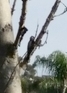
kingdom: Animalia
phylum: Chordata
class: Aves
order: Piciformes
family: Picidae
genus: Dryobates
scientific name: Dryobates pubescens
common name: Downy woodpecker
